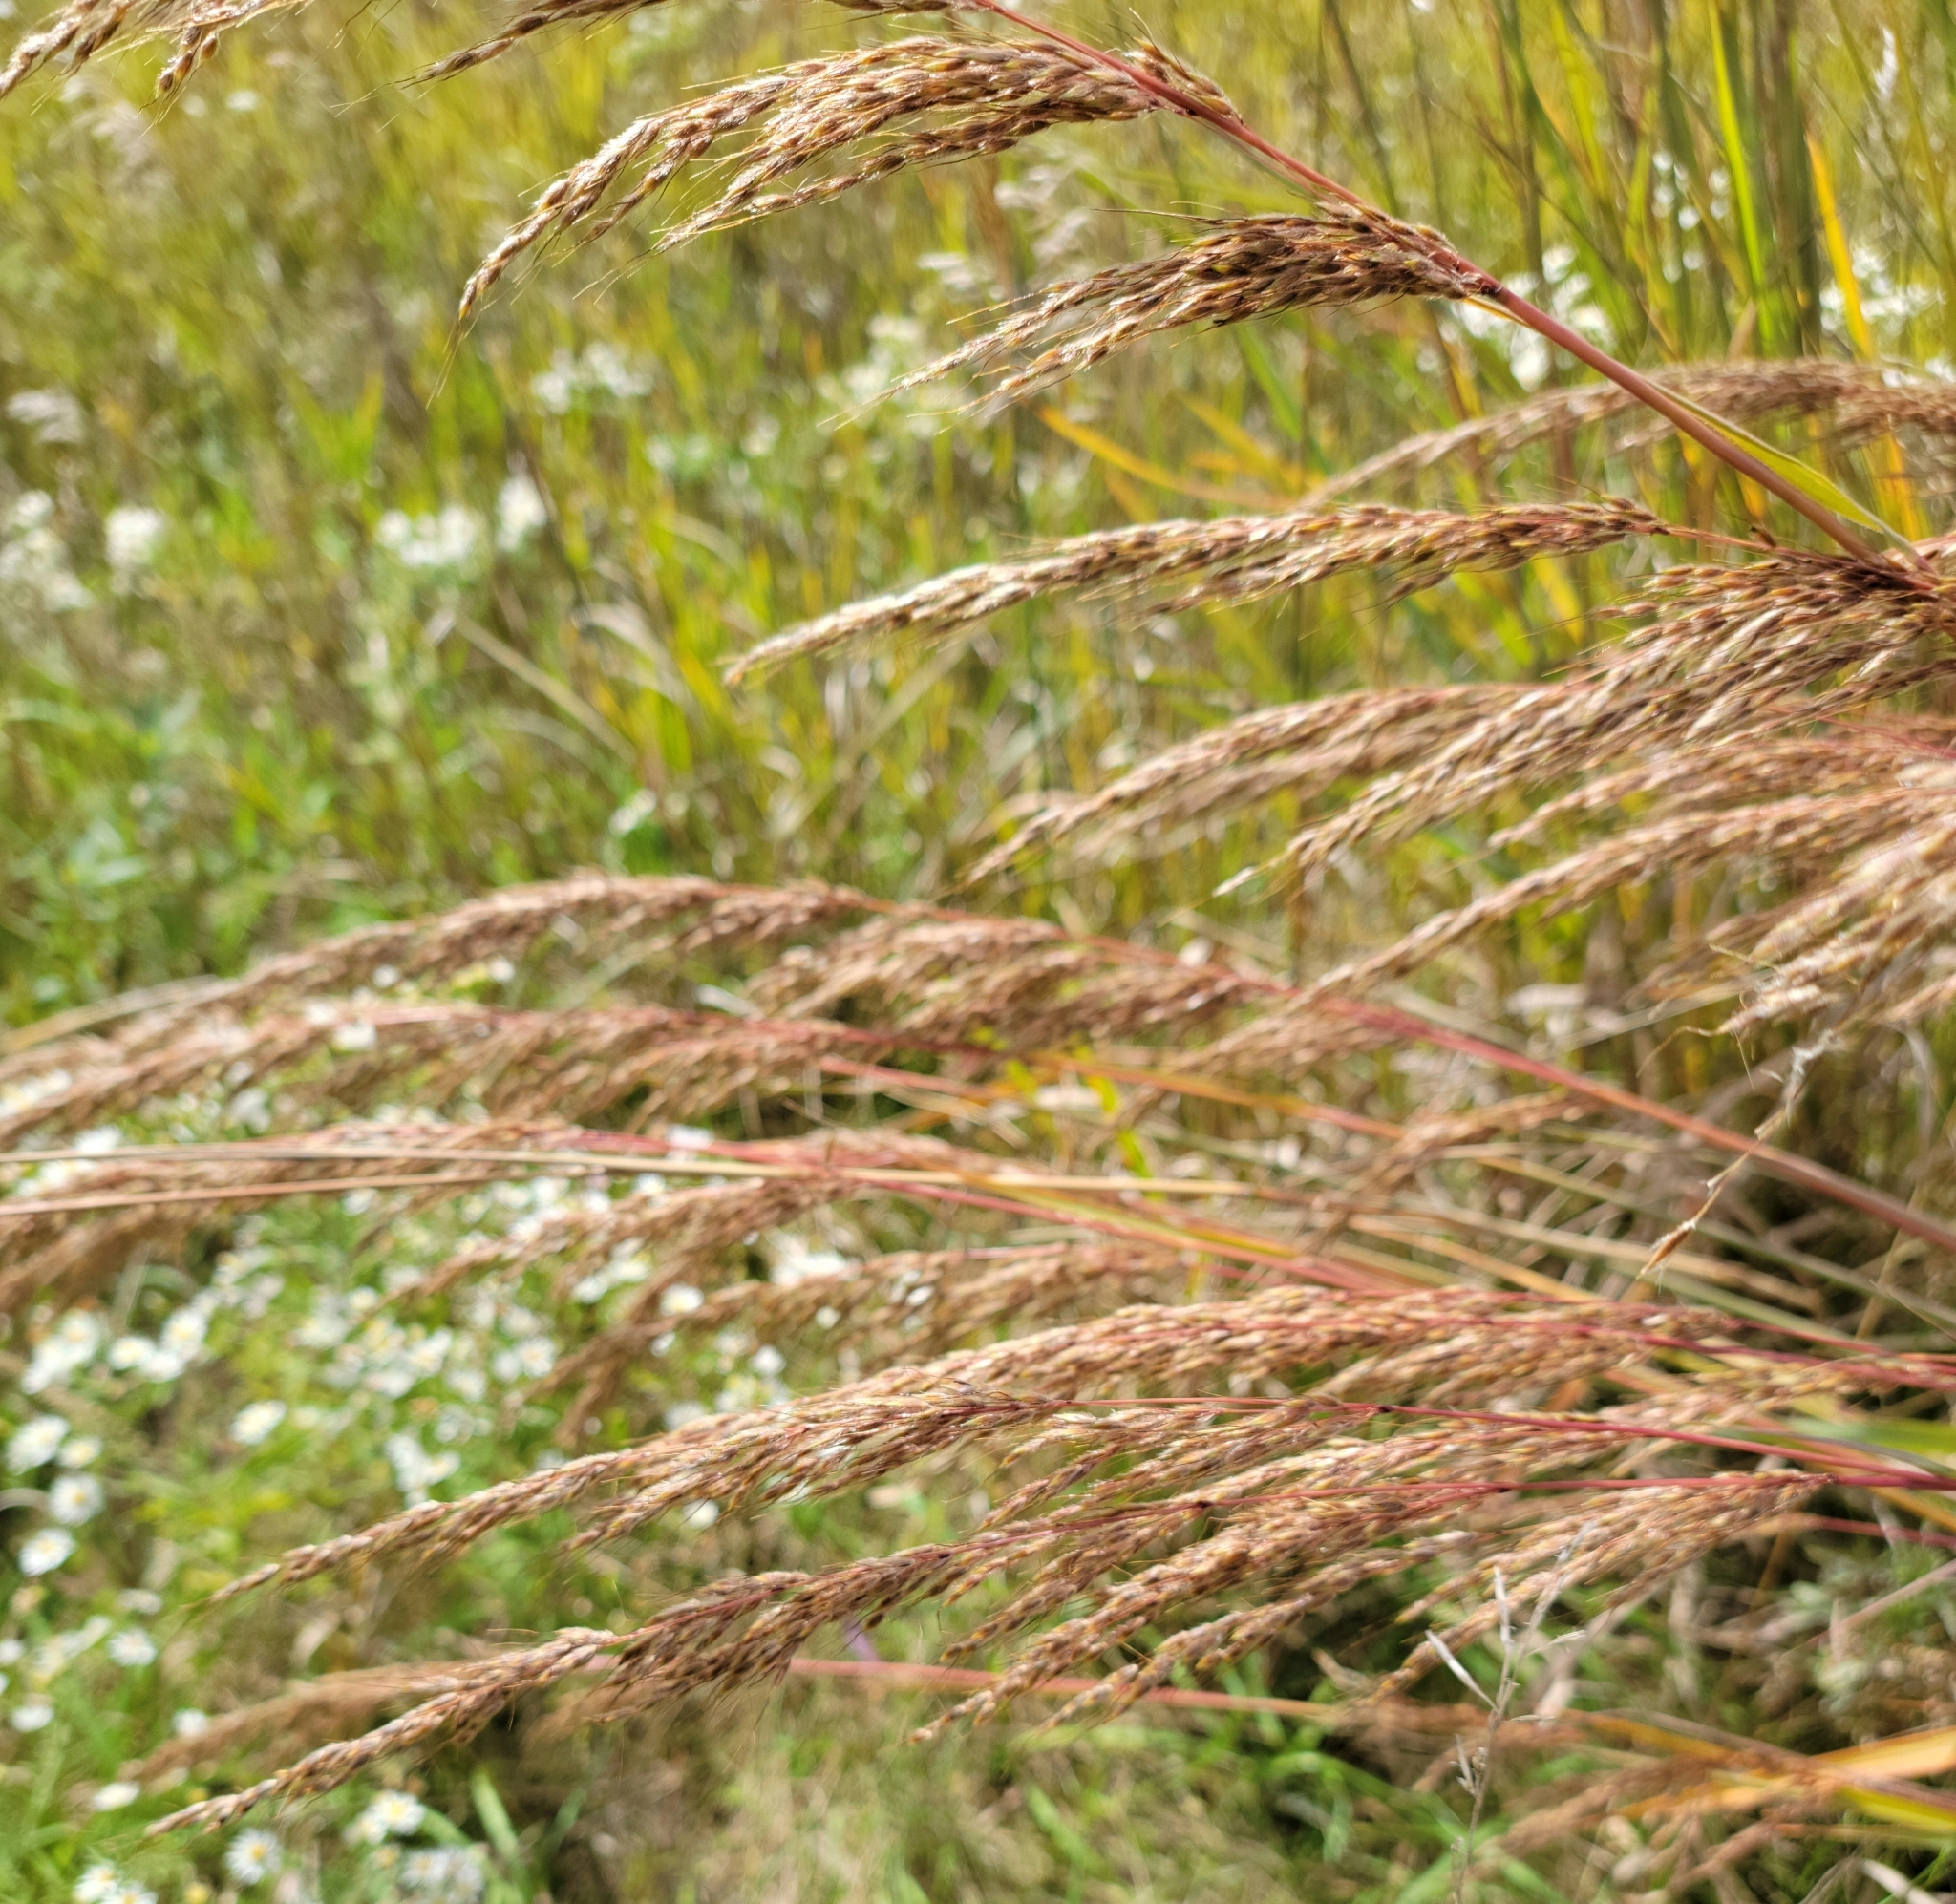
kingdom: Plantae
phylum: Tracheophyta
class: Liliopsida
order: Poales
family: Poaceae
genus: Sorghastrum
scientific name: Sorghastrum nutans
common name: Indian grass
